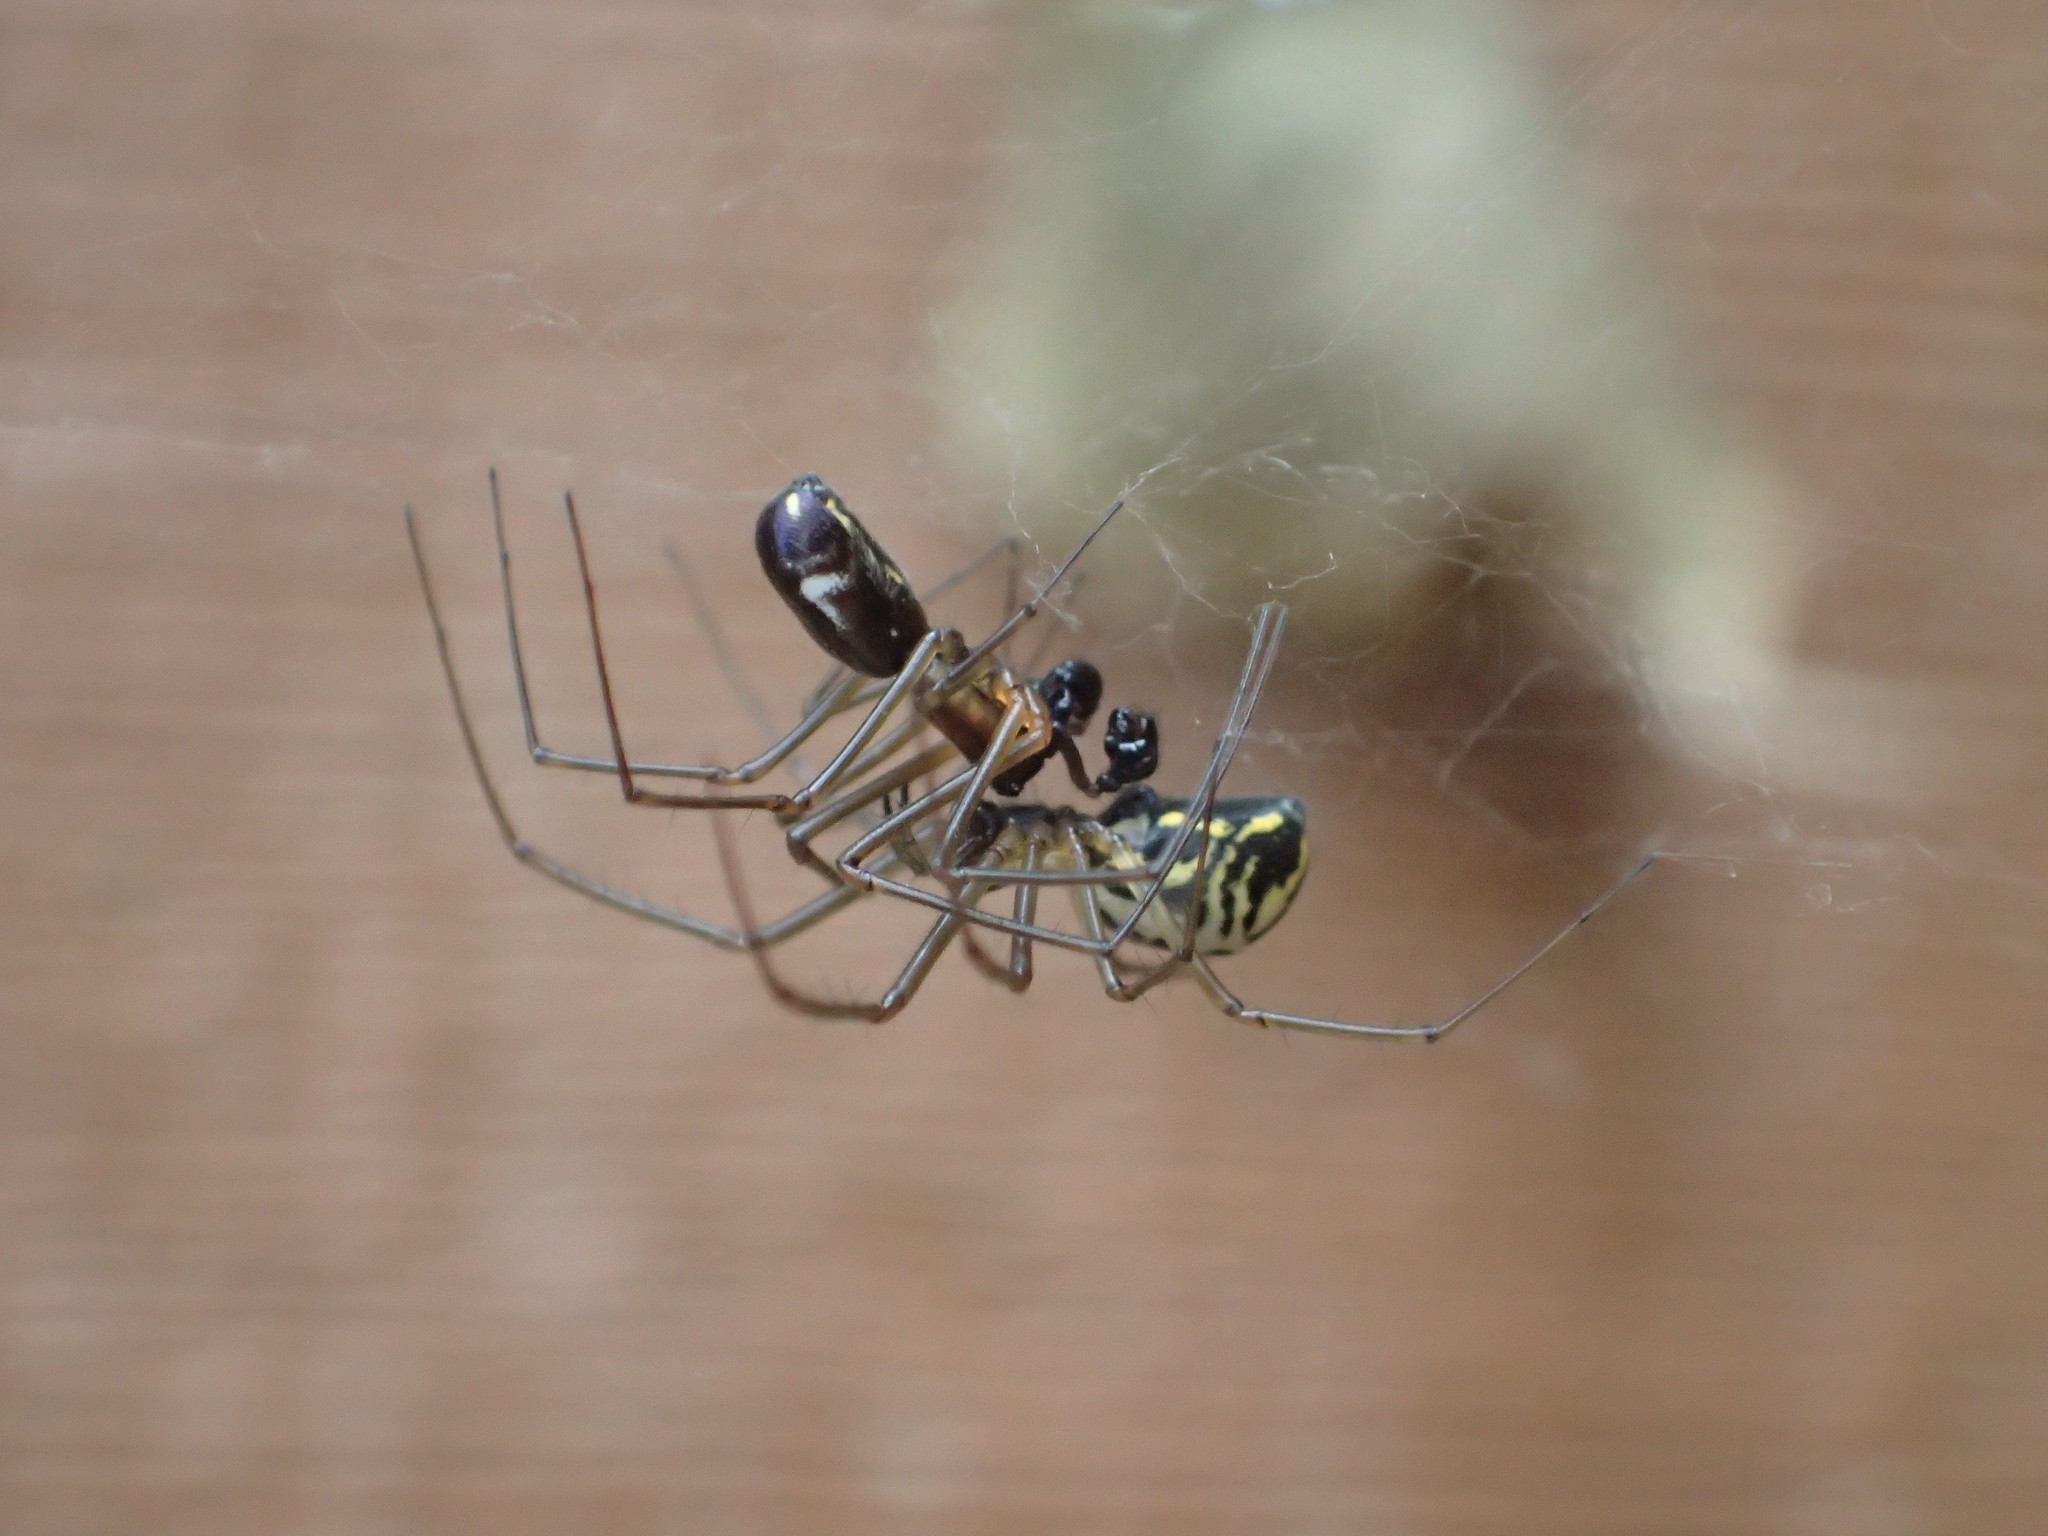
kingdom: Animalia
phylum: Arthropoda
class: Arachnida
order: Araneae
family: Linyphiidae
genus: Neriene
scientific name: Neriene radiata
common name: Filmy dome spider
